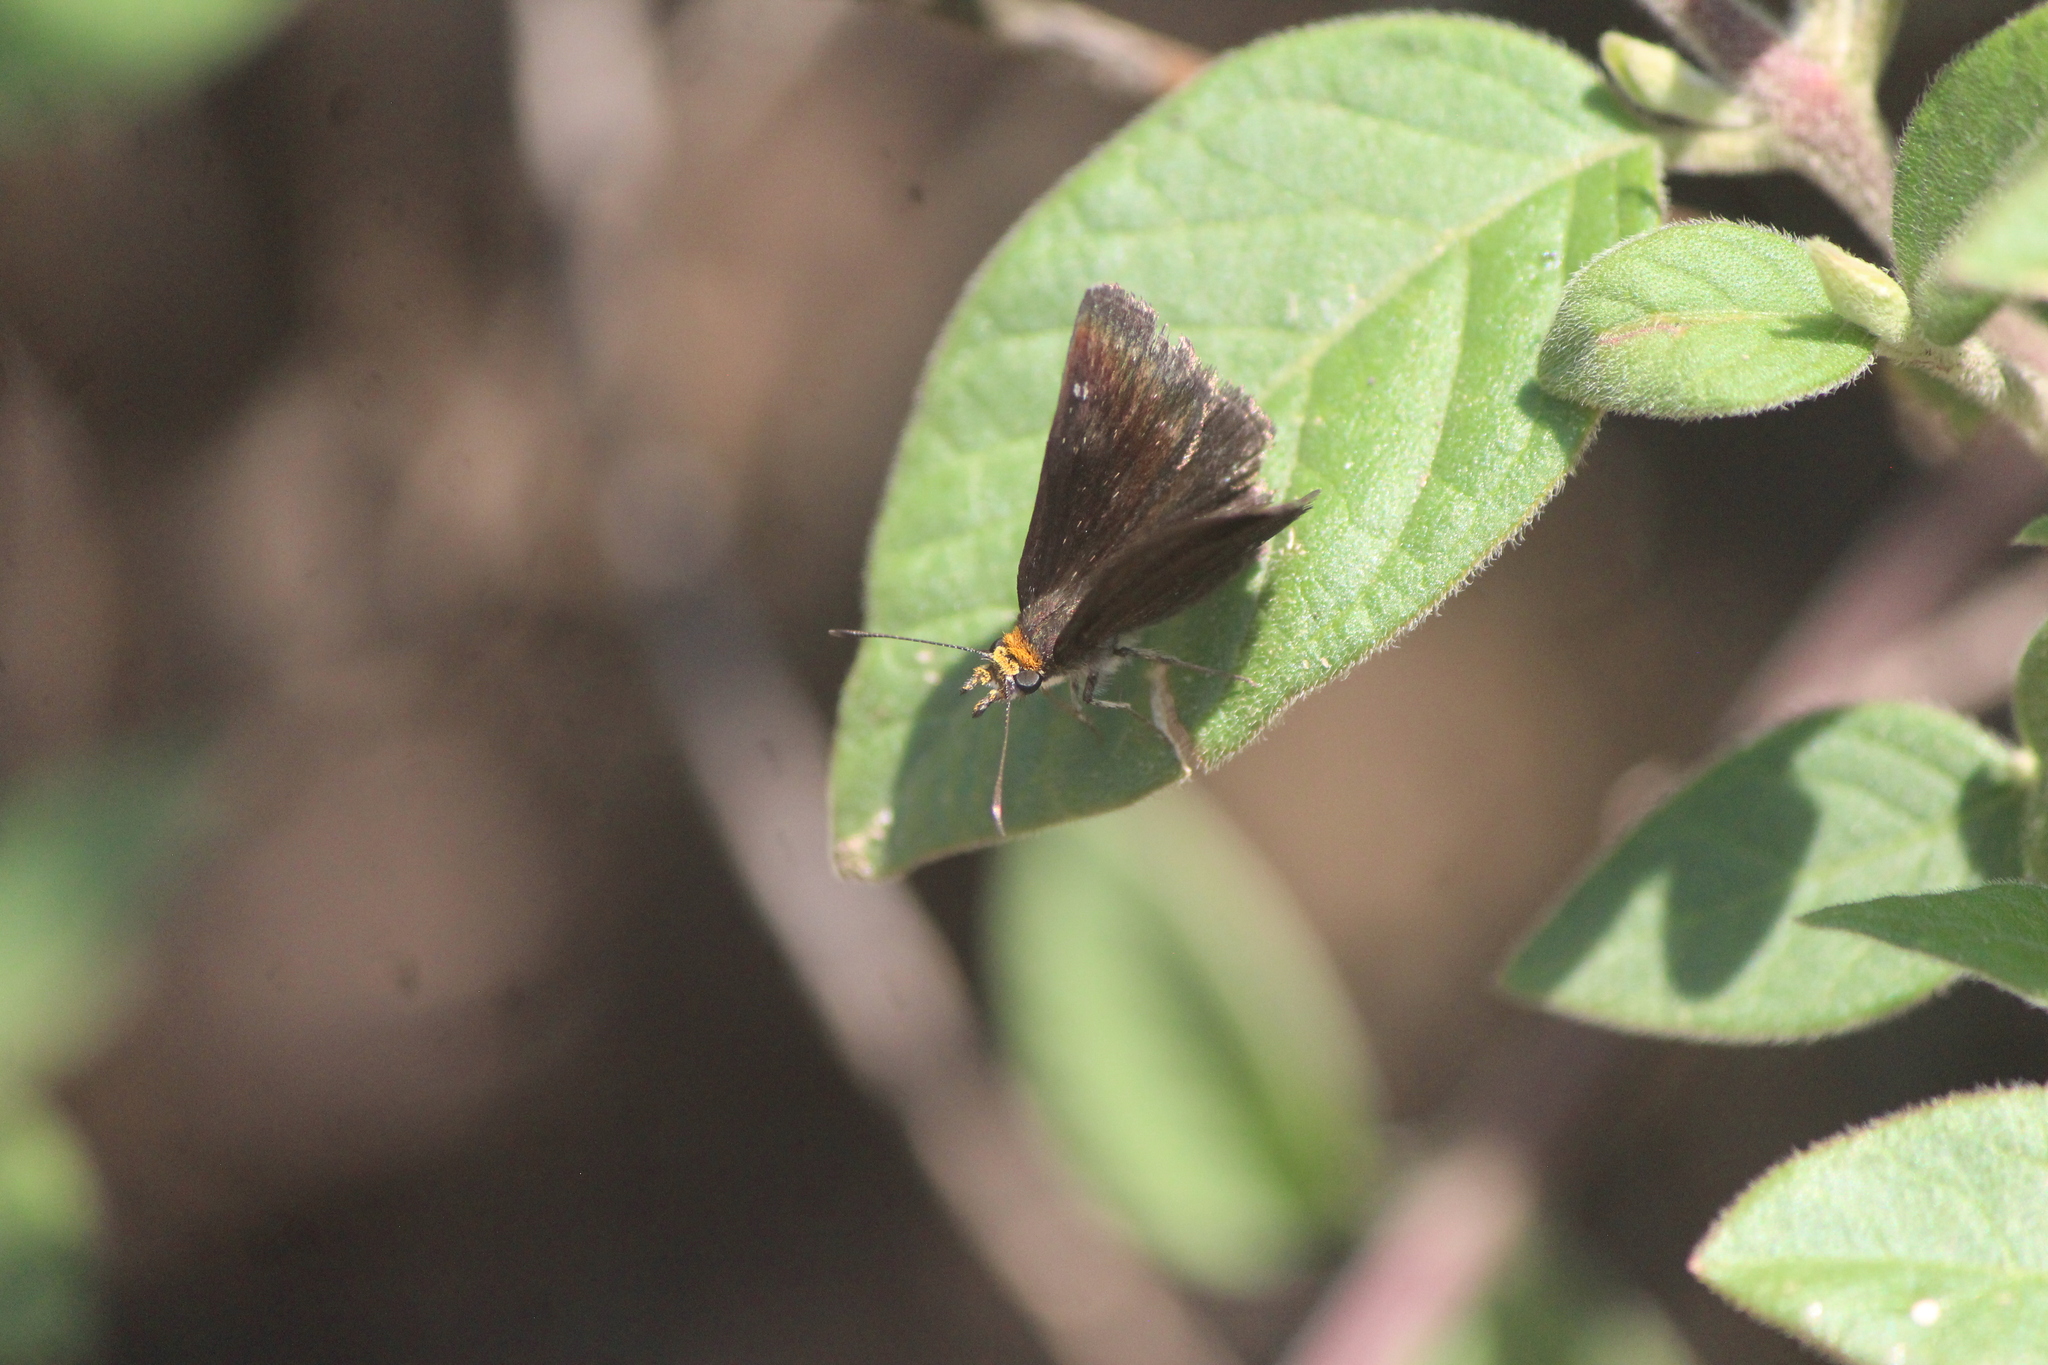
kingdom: Animalia
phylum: Arthropoda
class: Insecta
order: Lepidoptera
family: Hesperiidae
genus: Staphylus
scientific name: Staphylus ceos
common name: Golden-headed scallopwing
